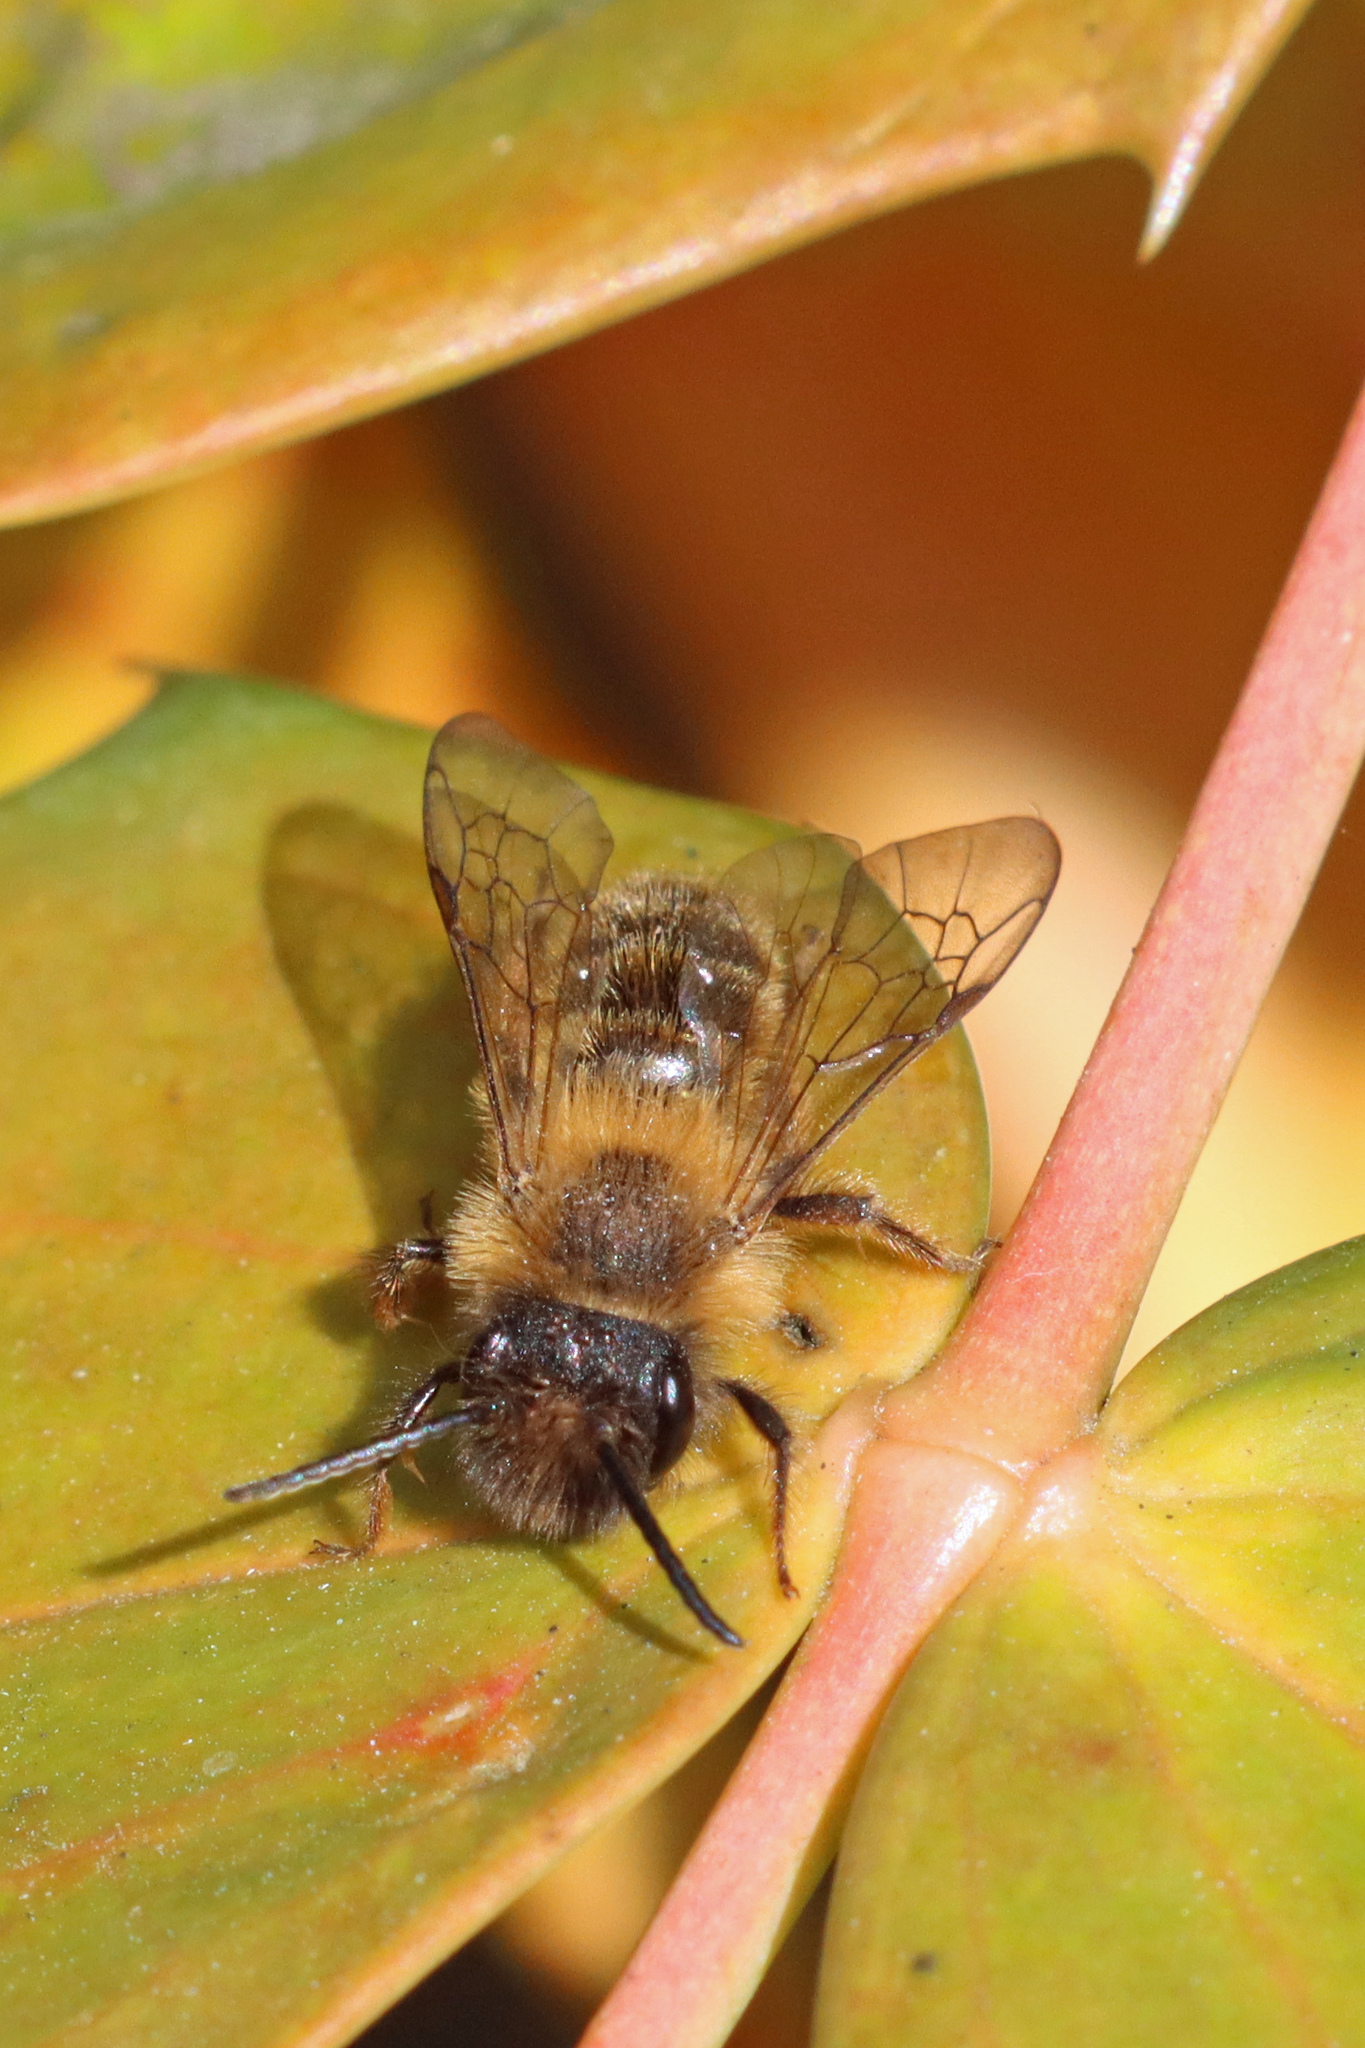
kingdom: Animalia
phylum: Arthropoda
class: Insecta
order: Hymenoptera
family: Andrenidae
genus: Andrena
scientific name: Andrena nigroaenea
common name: Buffish mining bee
